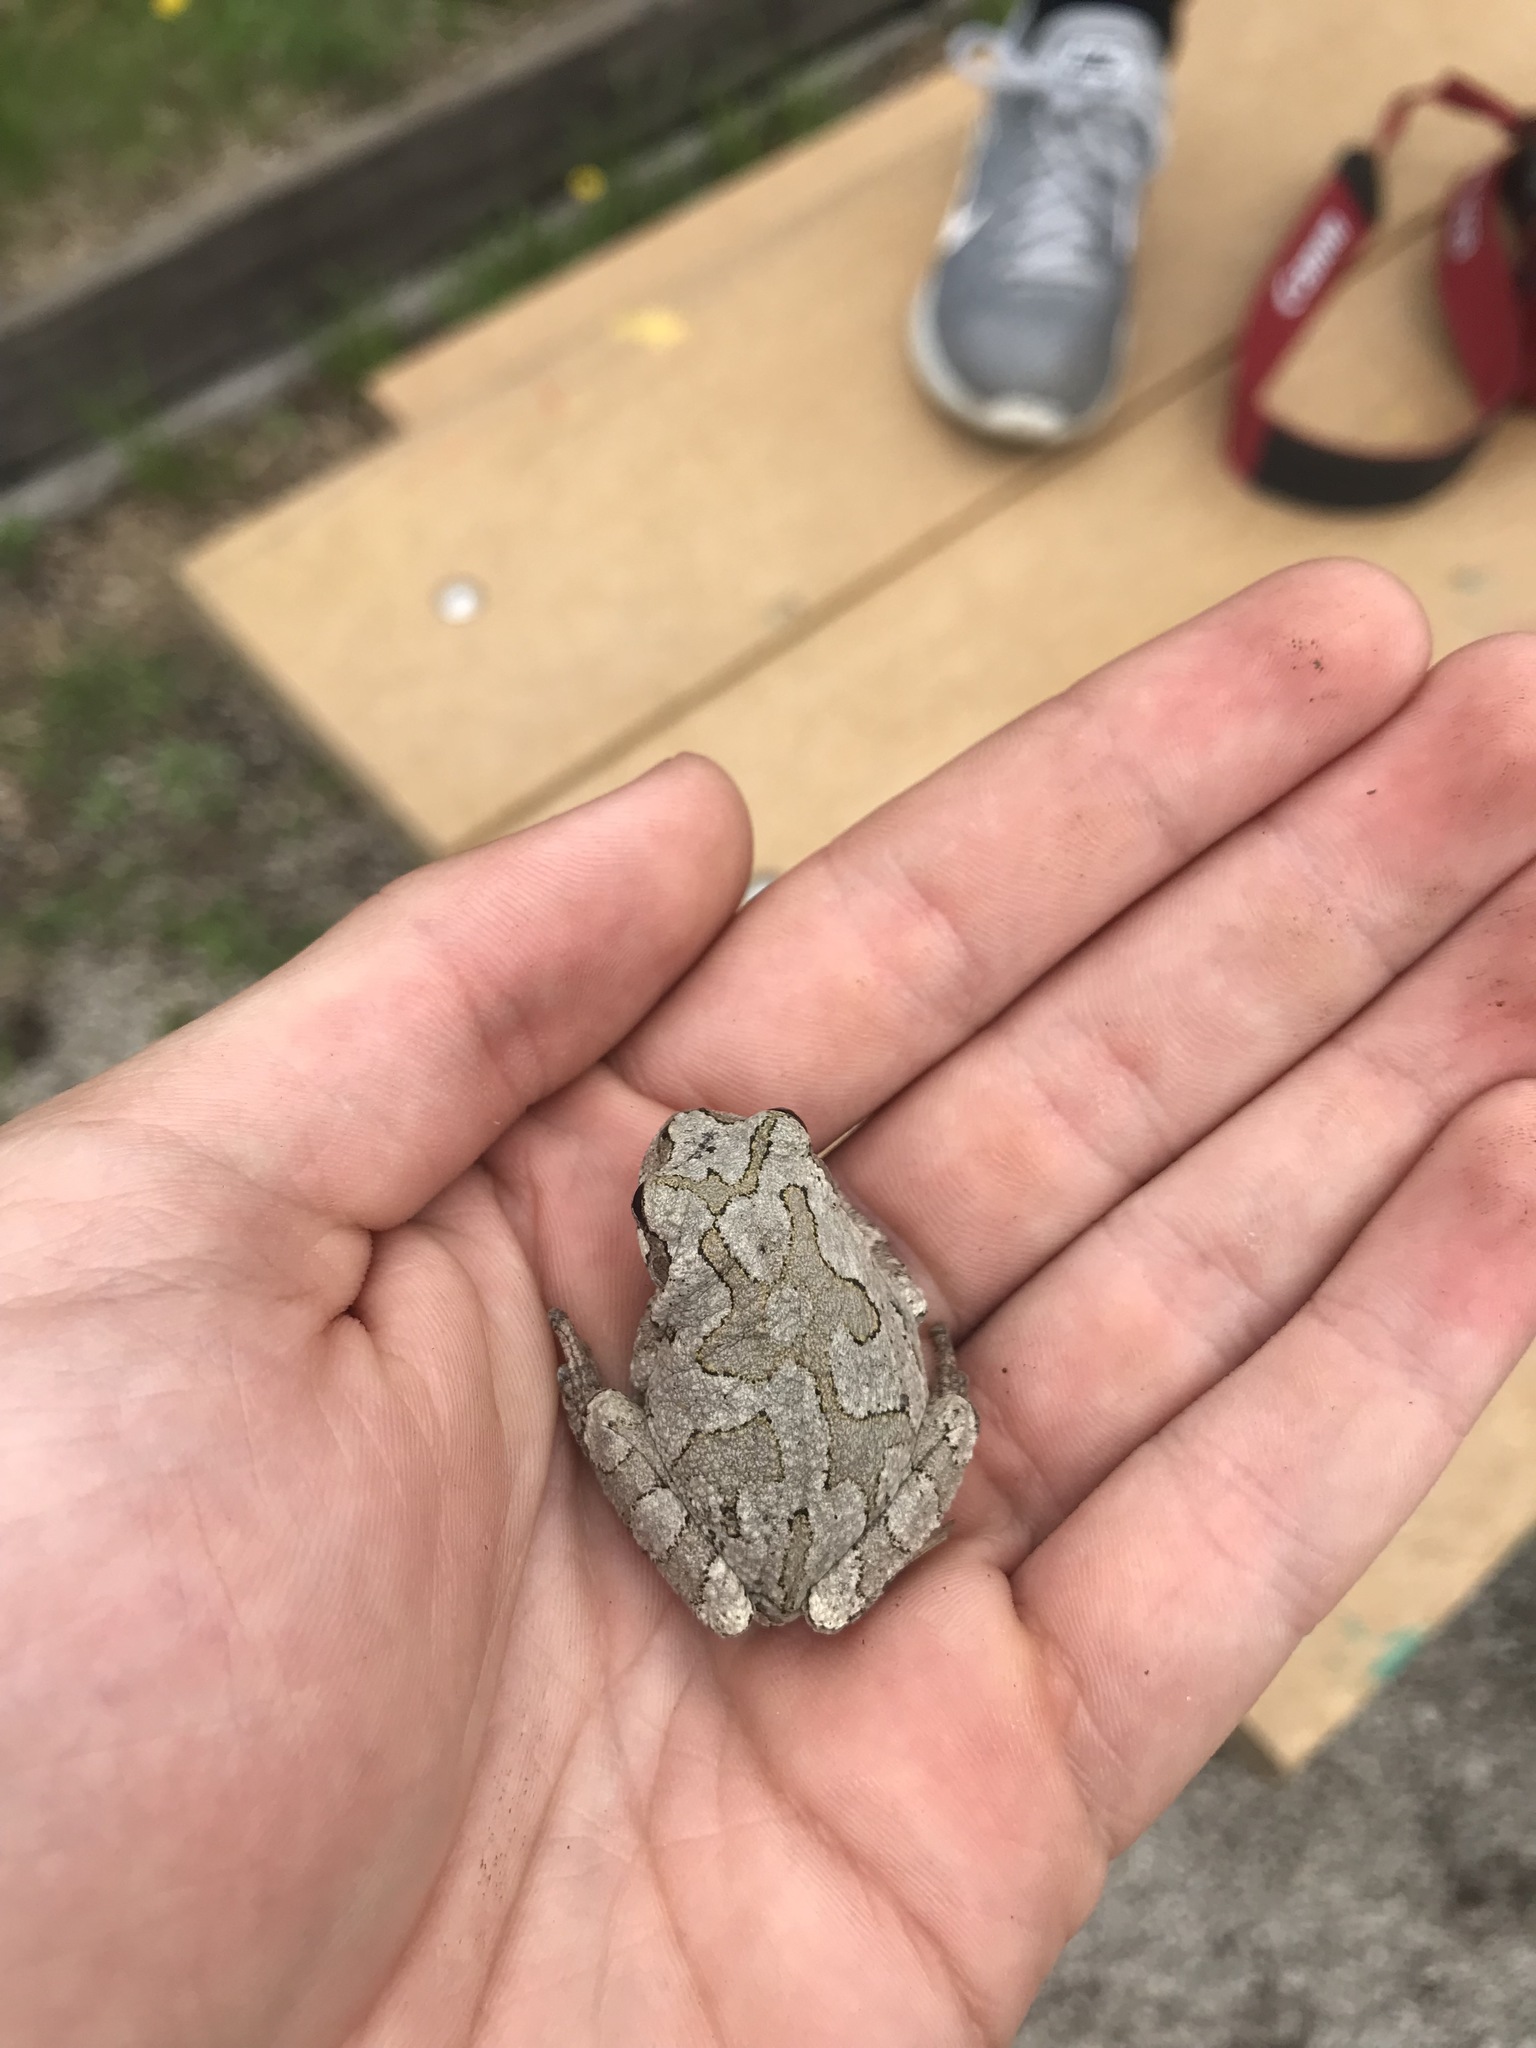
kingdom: Animalia
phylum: Chordata
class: Amphibia
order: Anura
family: Hylidae
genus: Dryophytes
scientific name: Dryophytes versicolor
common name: Gray treefrog
